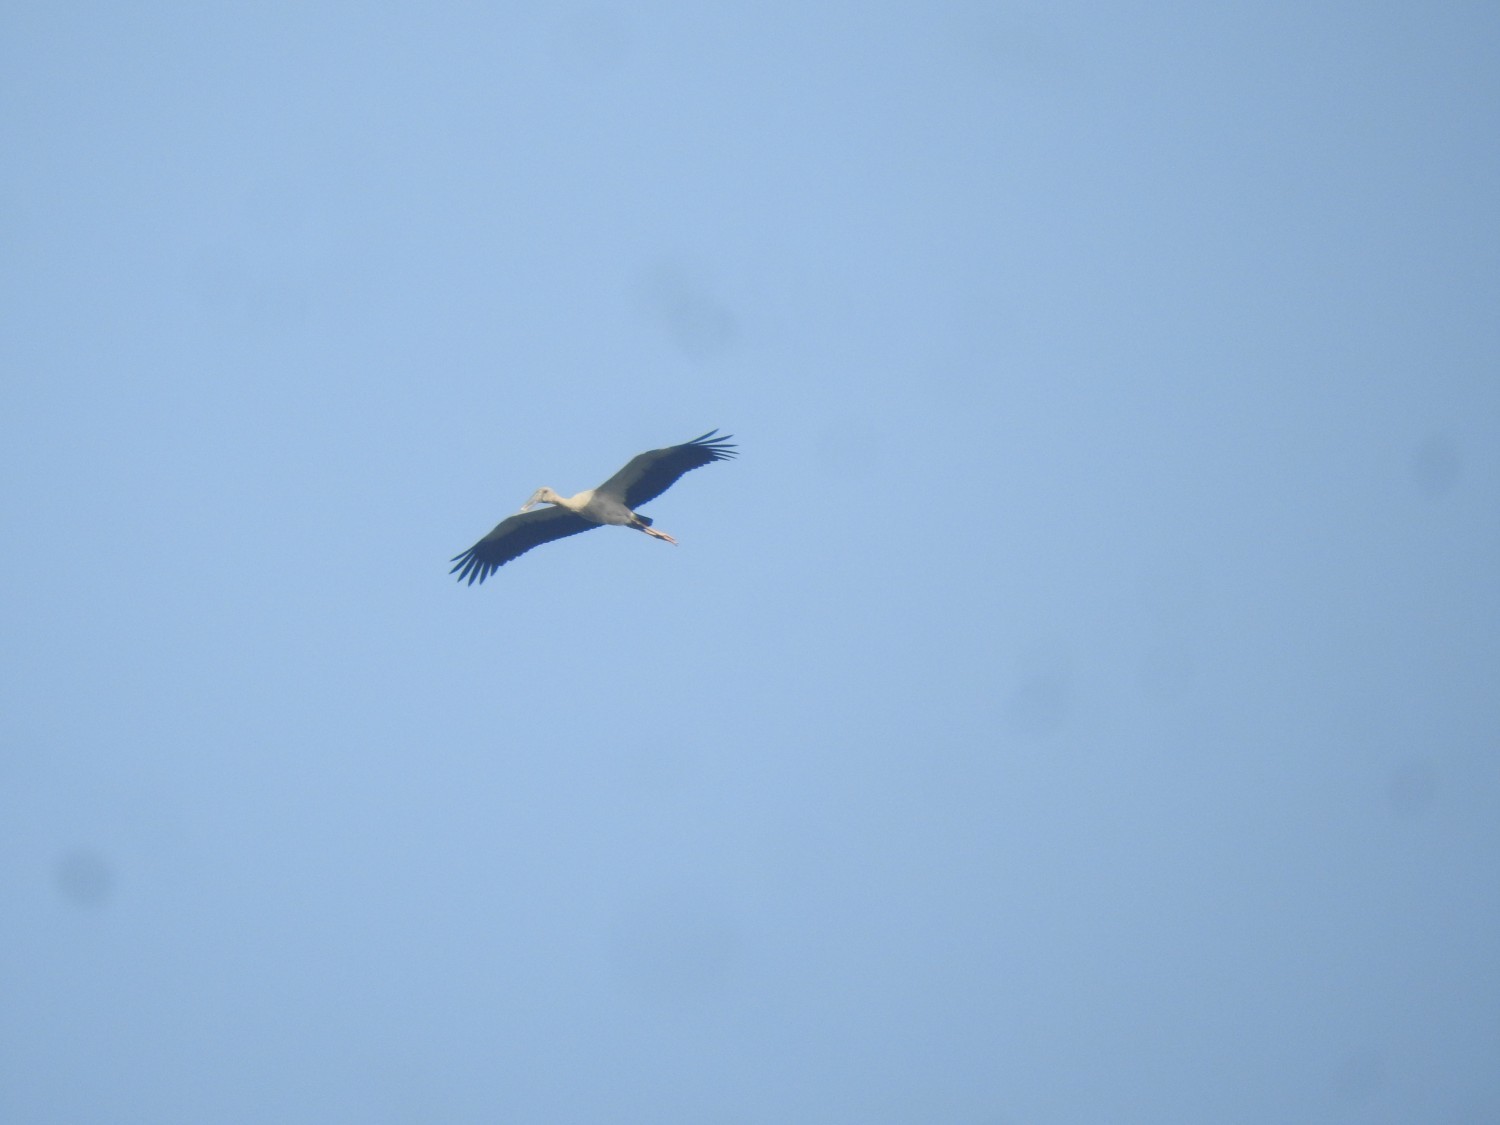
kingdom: Animalia
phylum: Chordata
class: Aves
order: Ciconiiformes
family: Ciconiidae
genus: Anastomus
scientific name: Anastomus oscitans
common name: Asian openbill
